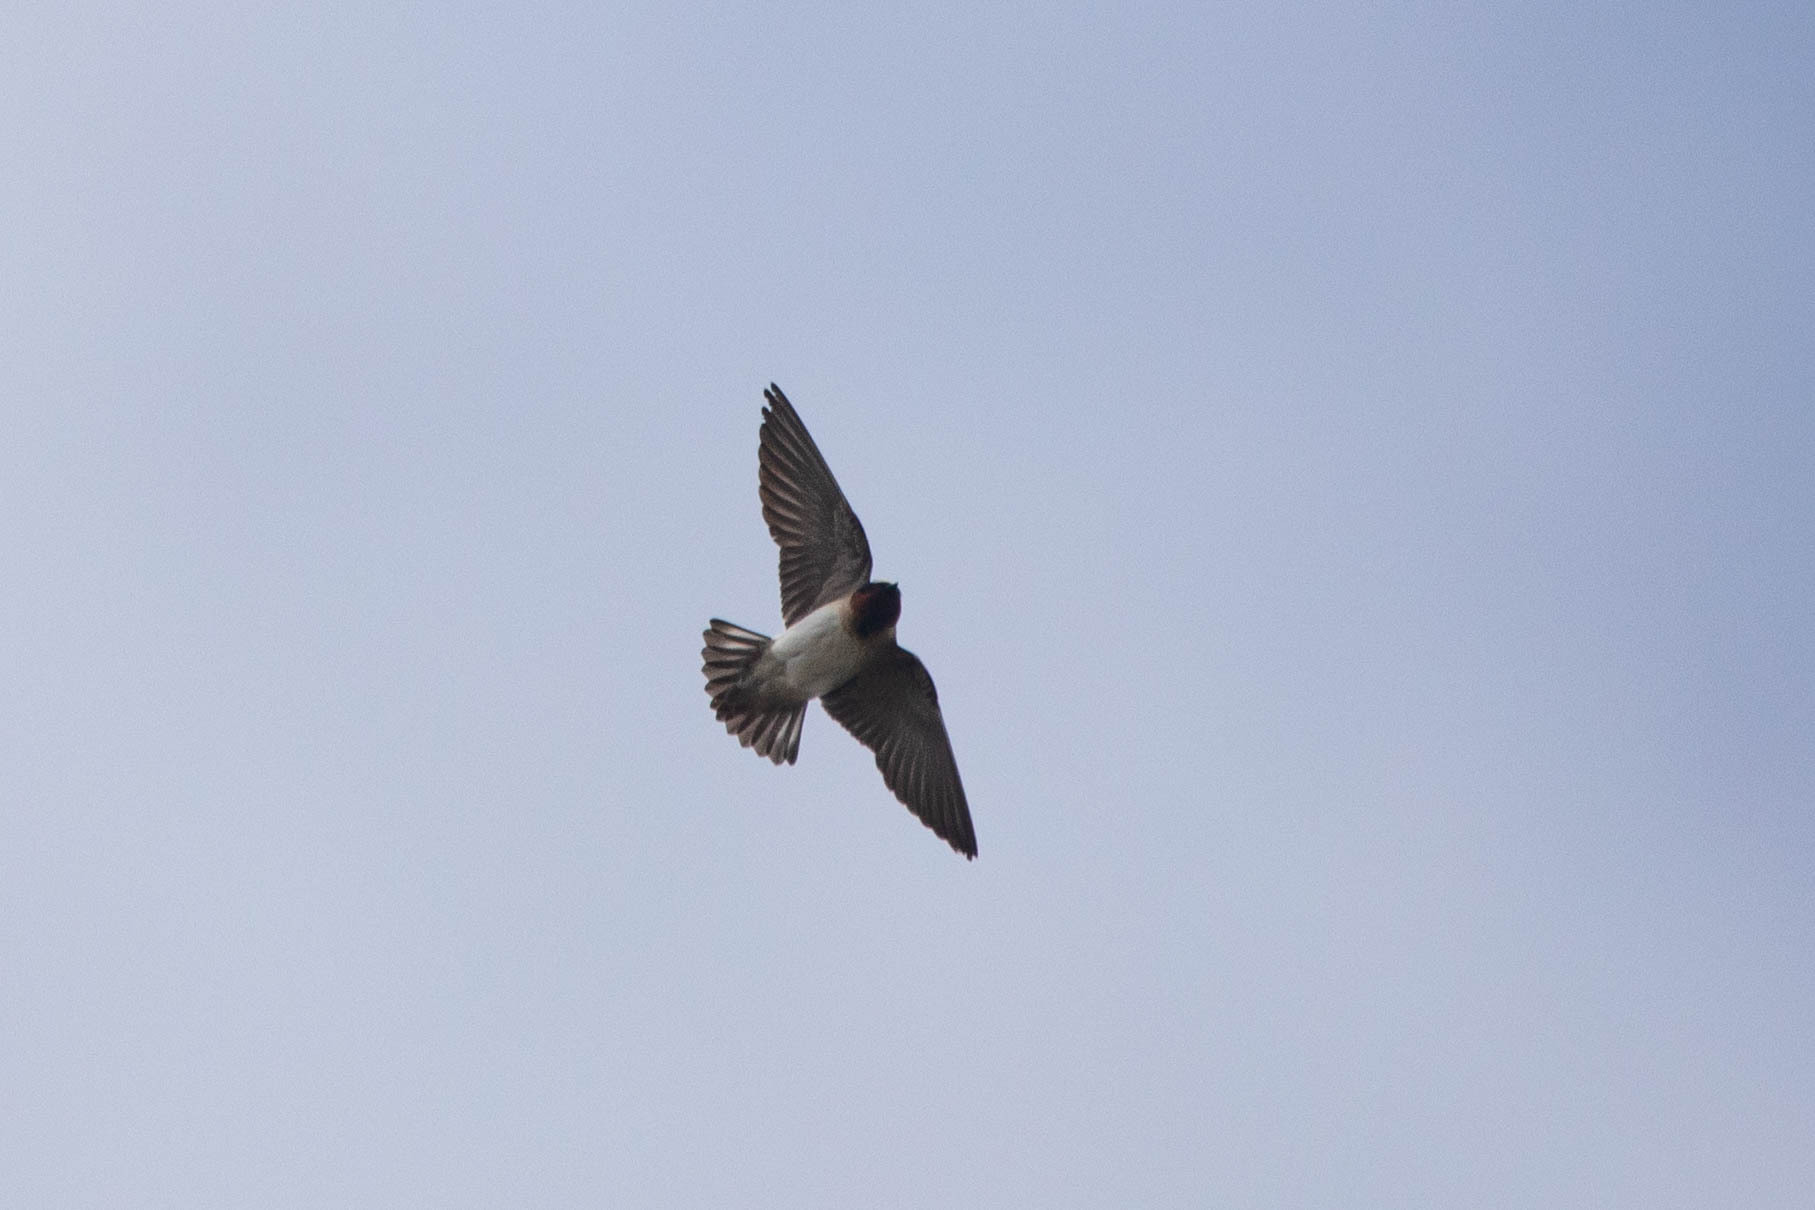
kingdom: Animalia
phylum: Chordata
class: Aves
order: Passeriformes
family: Hirundinidae
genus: Petrochelidon
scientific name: Petrochelidon pyrrhonota
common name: American cliff swallow
